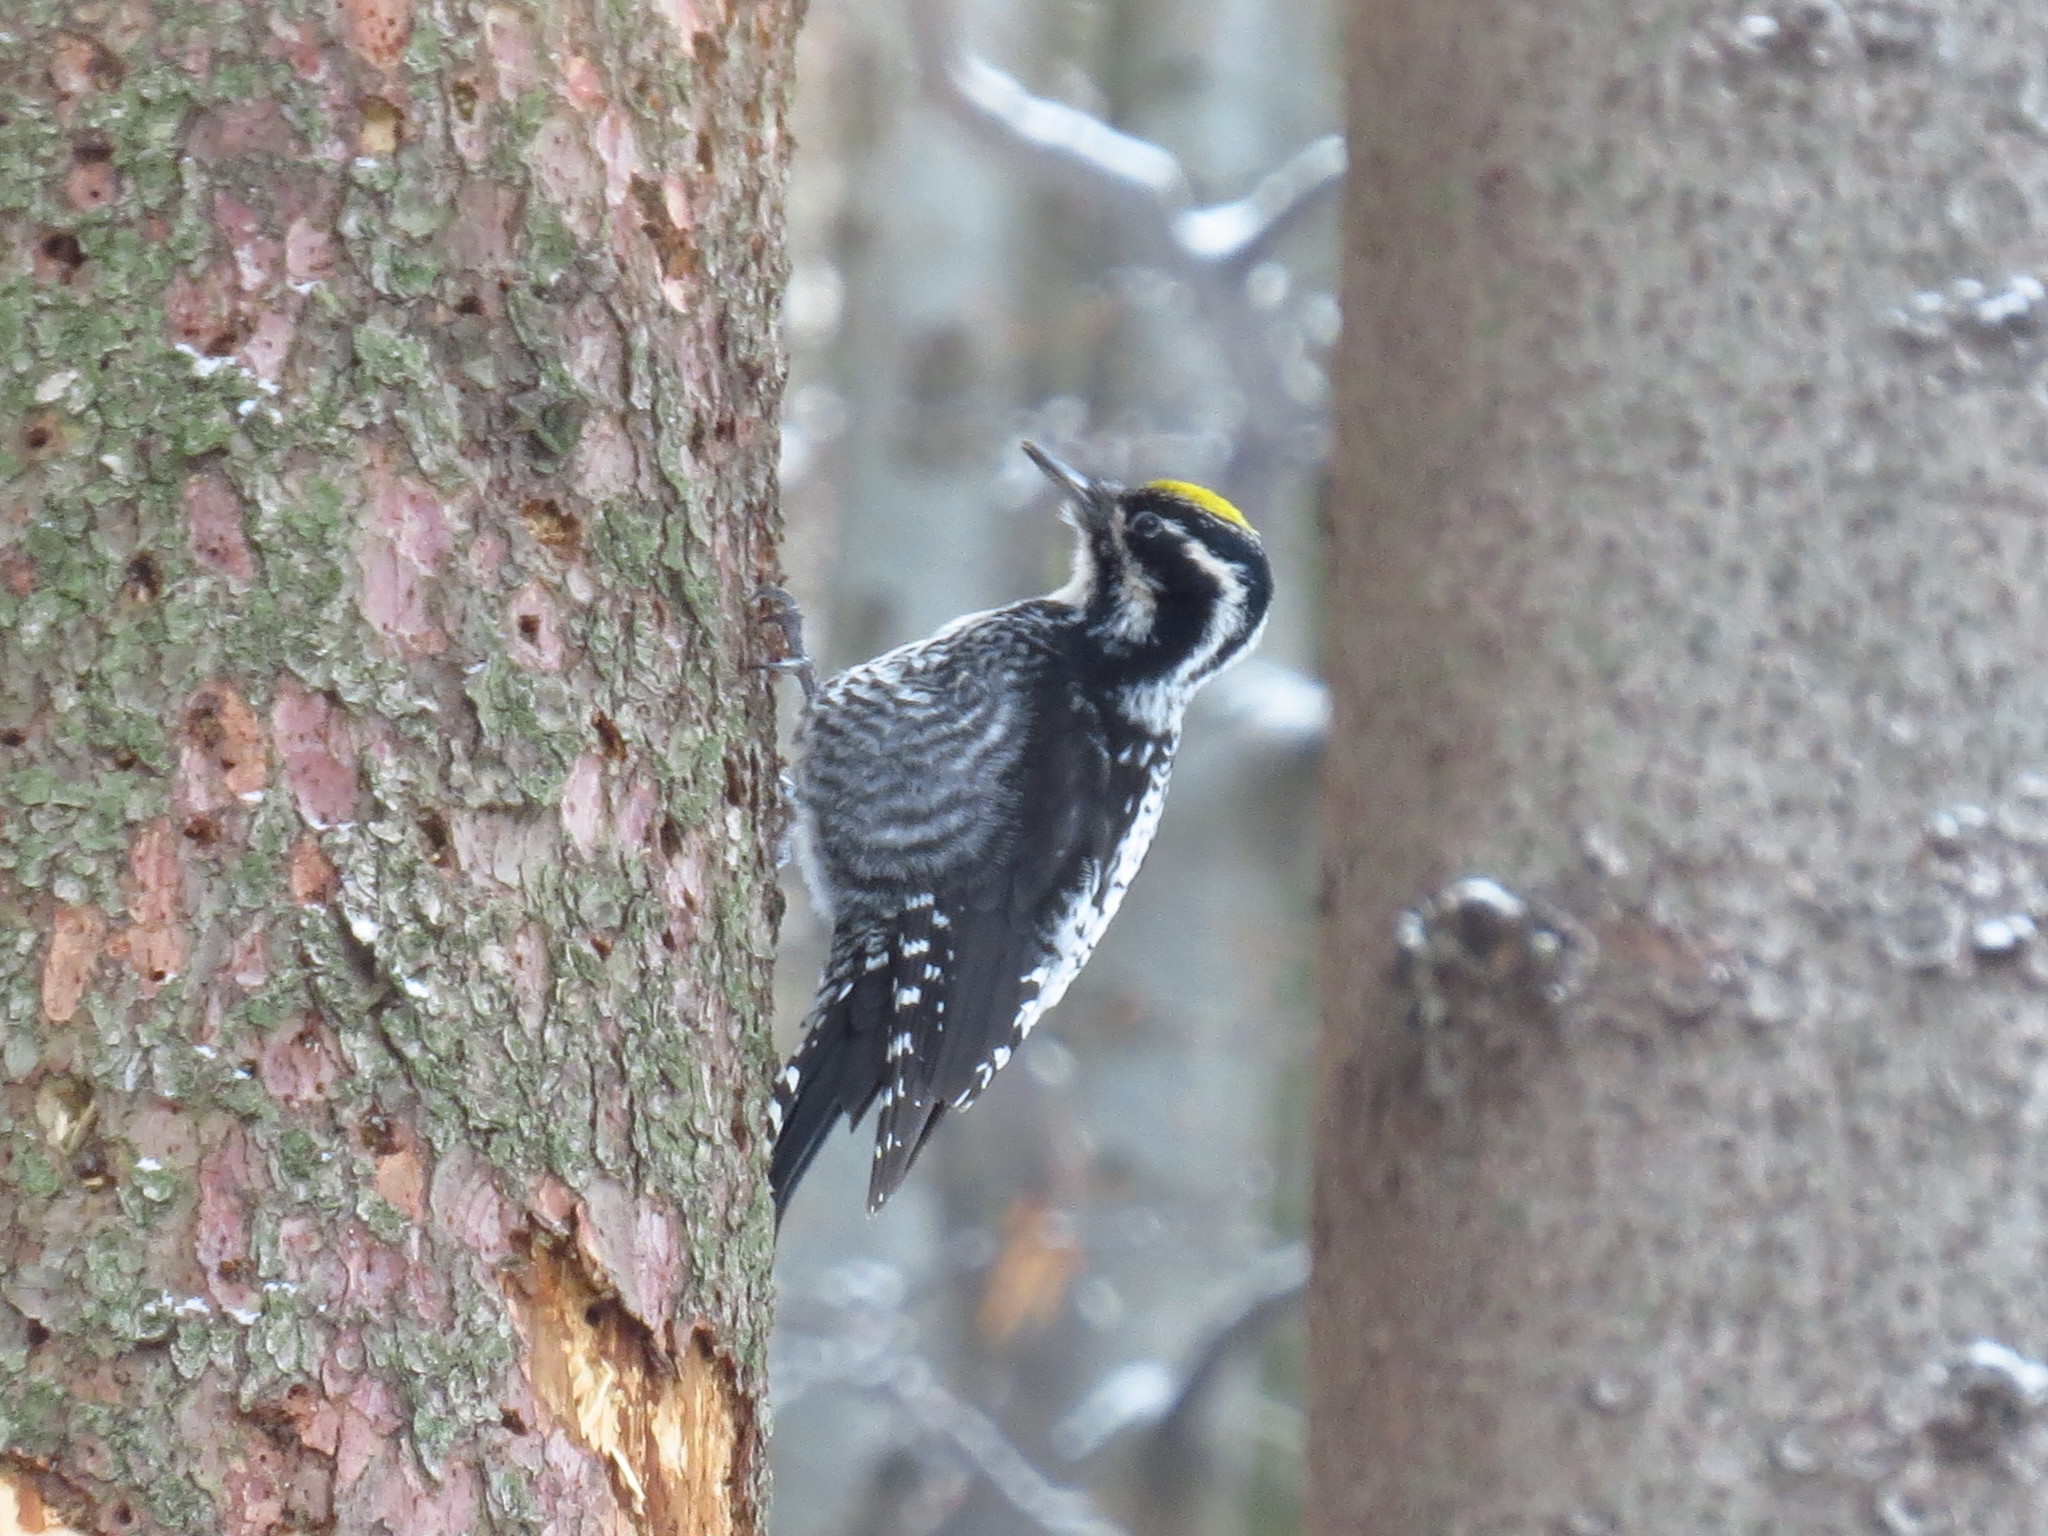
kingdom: Animalia
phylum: Chordata
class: Aves
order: Piciformes
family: Picidae
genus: Picoides
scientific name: Picoides tridactylus
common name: Eurasian three-toed woodpecker
